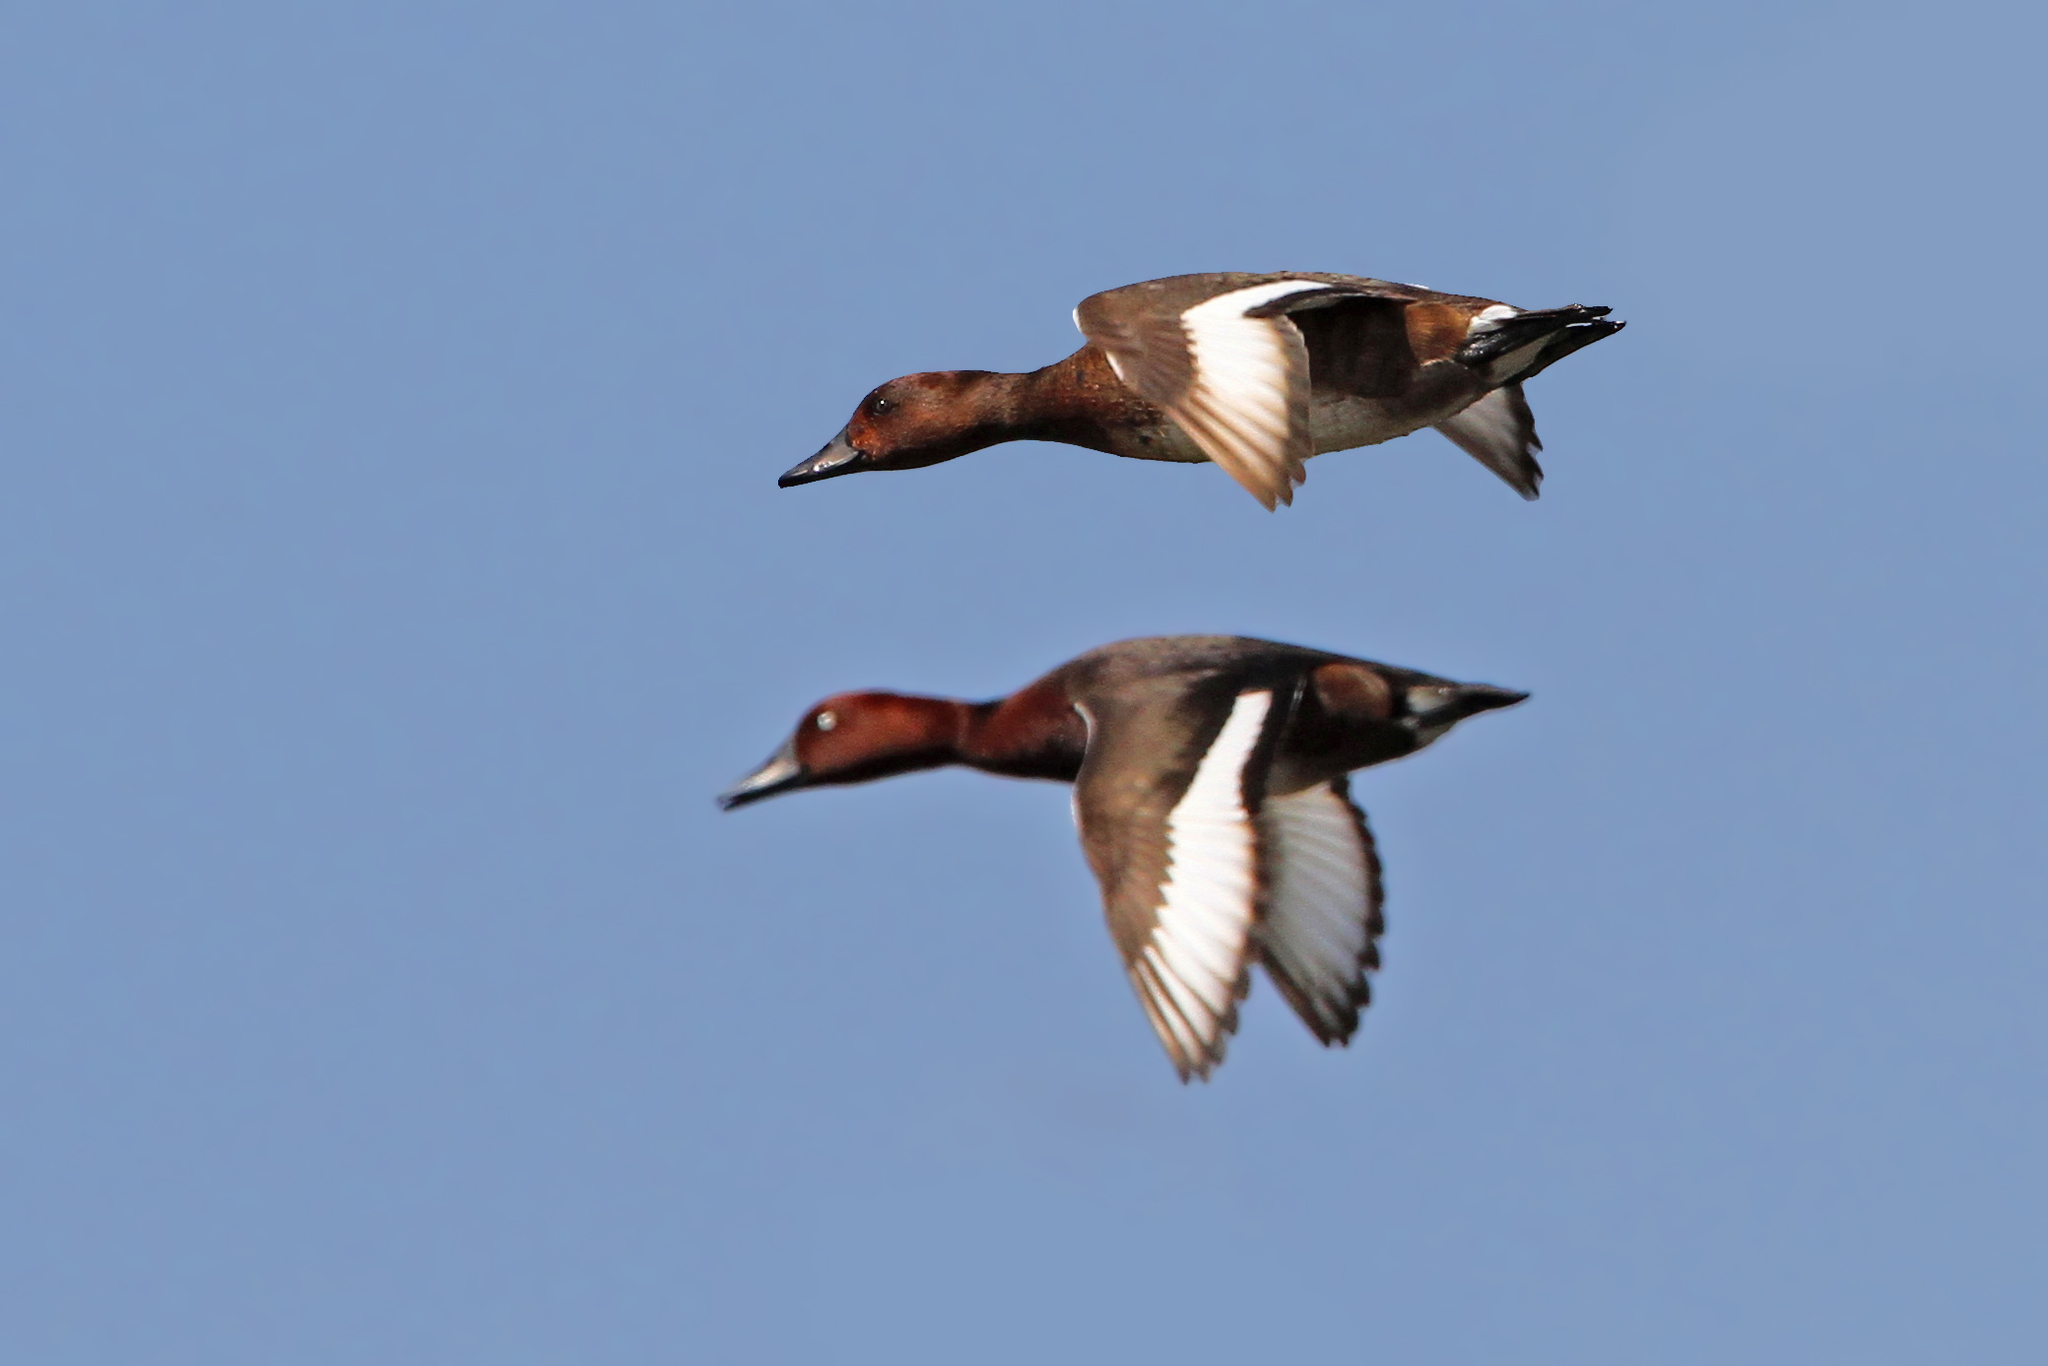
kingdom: Animalia
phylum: Chordata
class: Aves
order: Anseriformes
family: Anatidae
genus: Aythya
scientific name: Aythya nyroca
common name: Ferruginous duck
